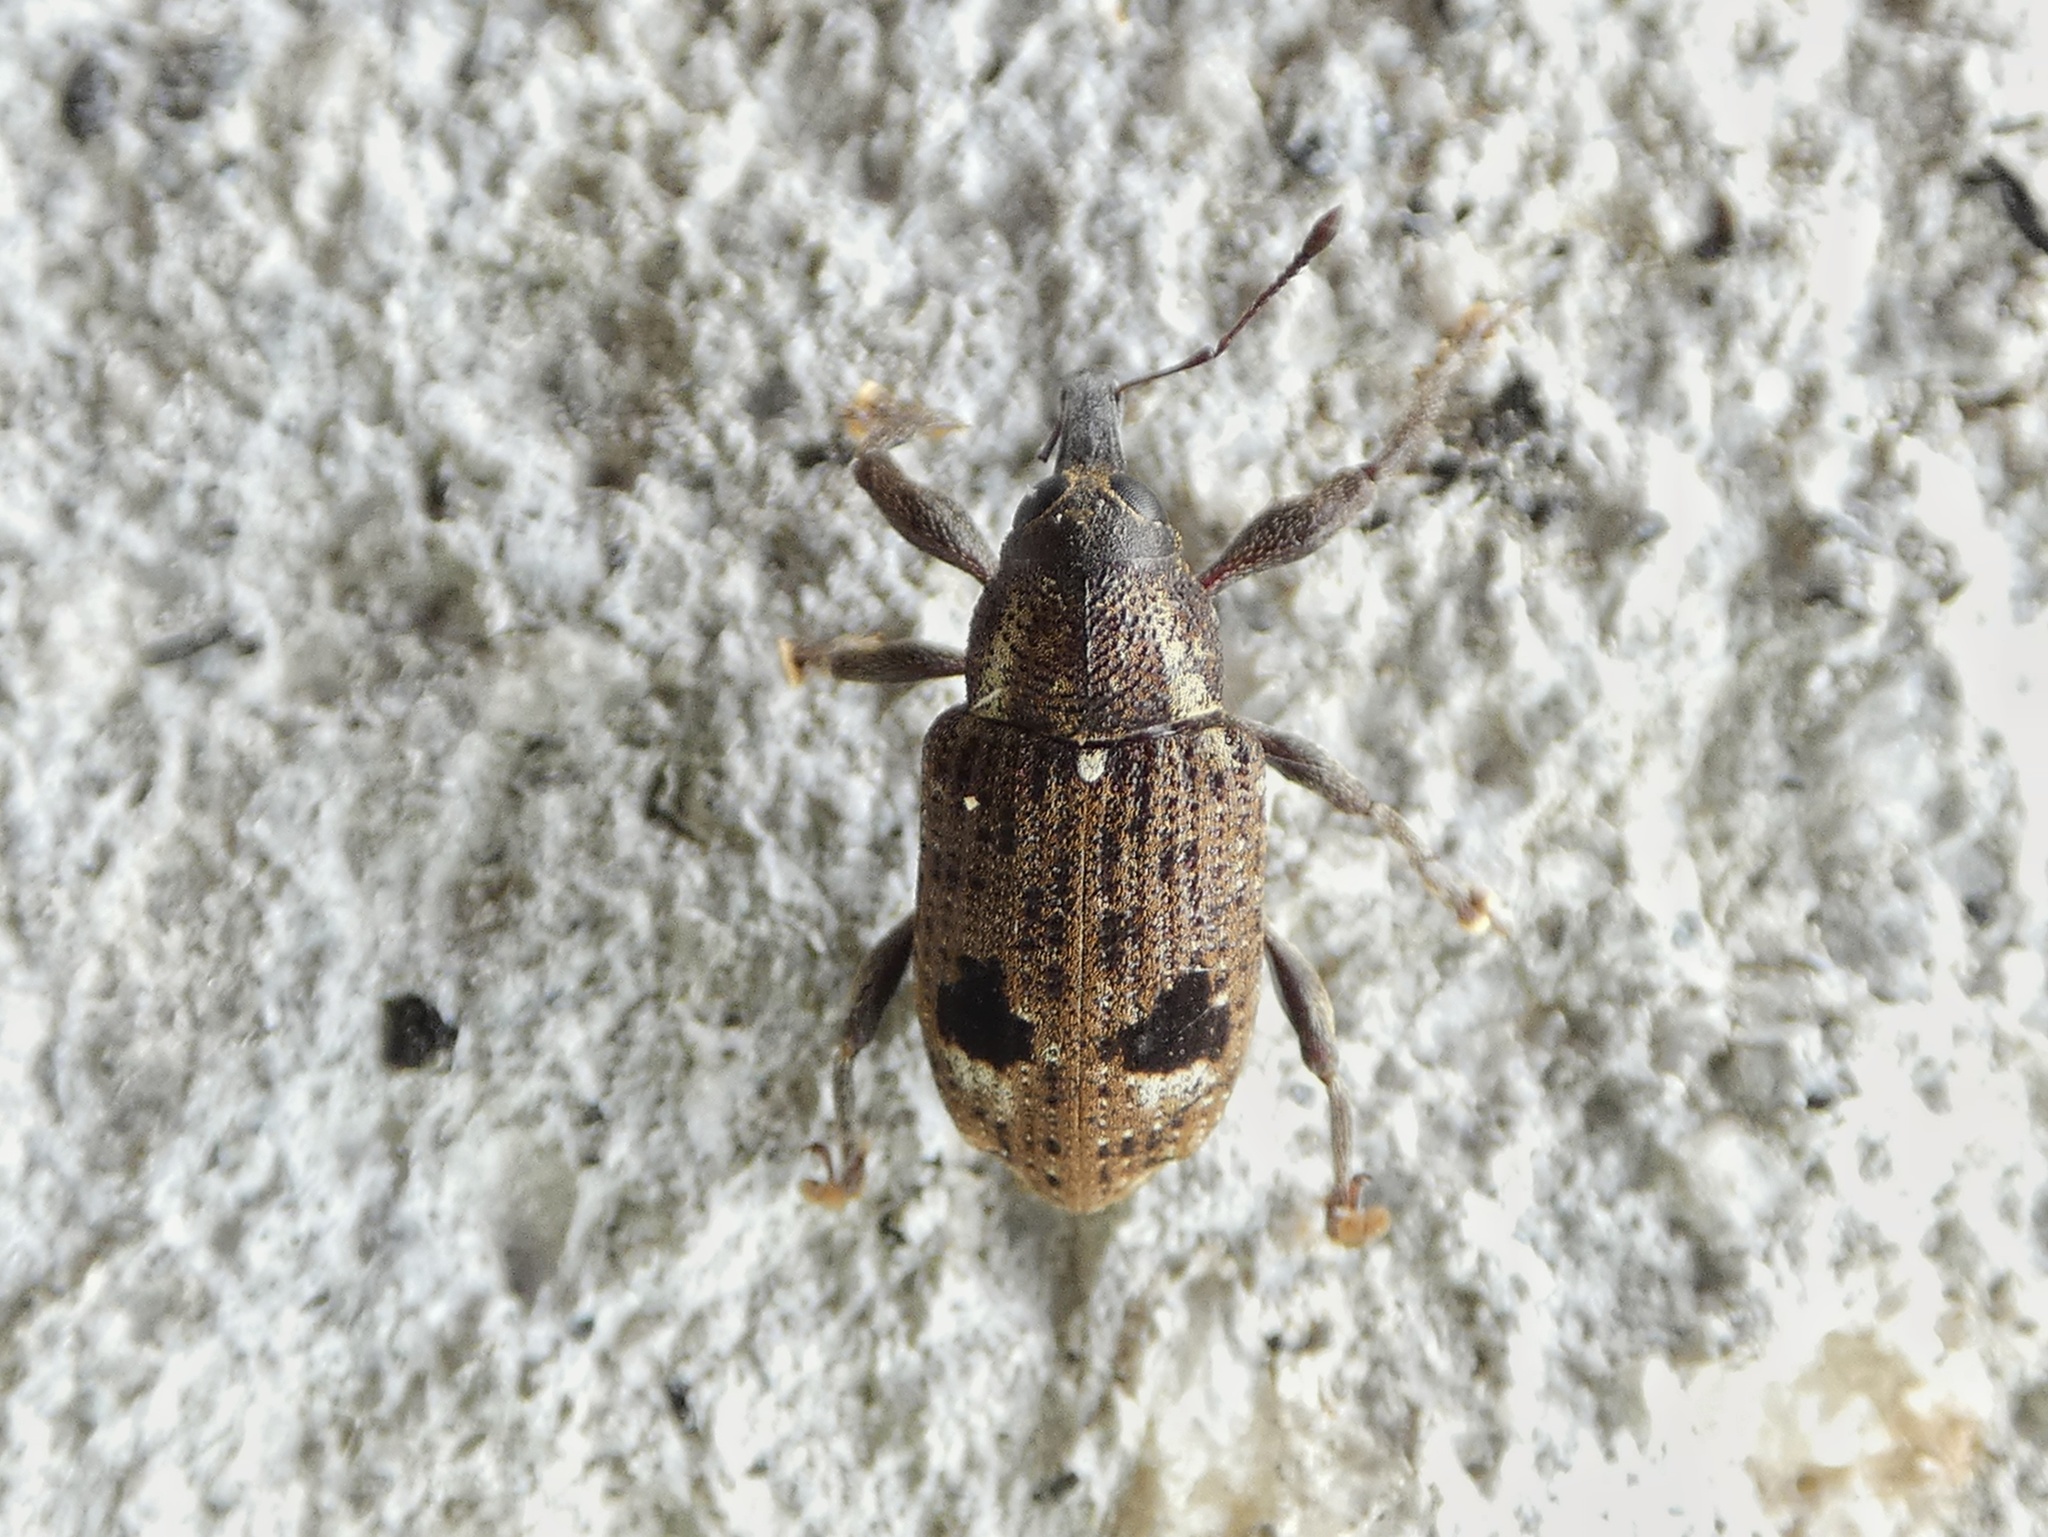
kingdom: Animalia
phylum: Arthropoda
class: Insecta
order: Coleoptera
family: Curculionidae
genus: Hilipus
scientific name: Hilipus latipennis
